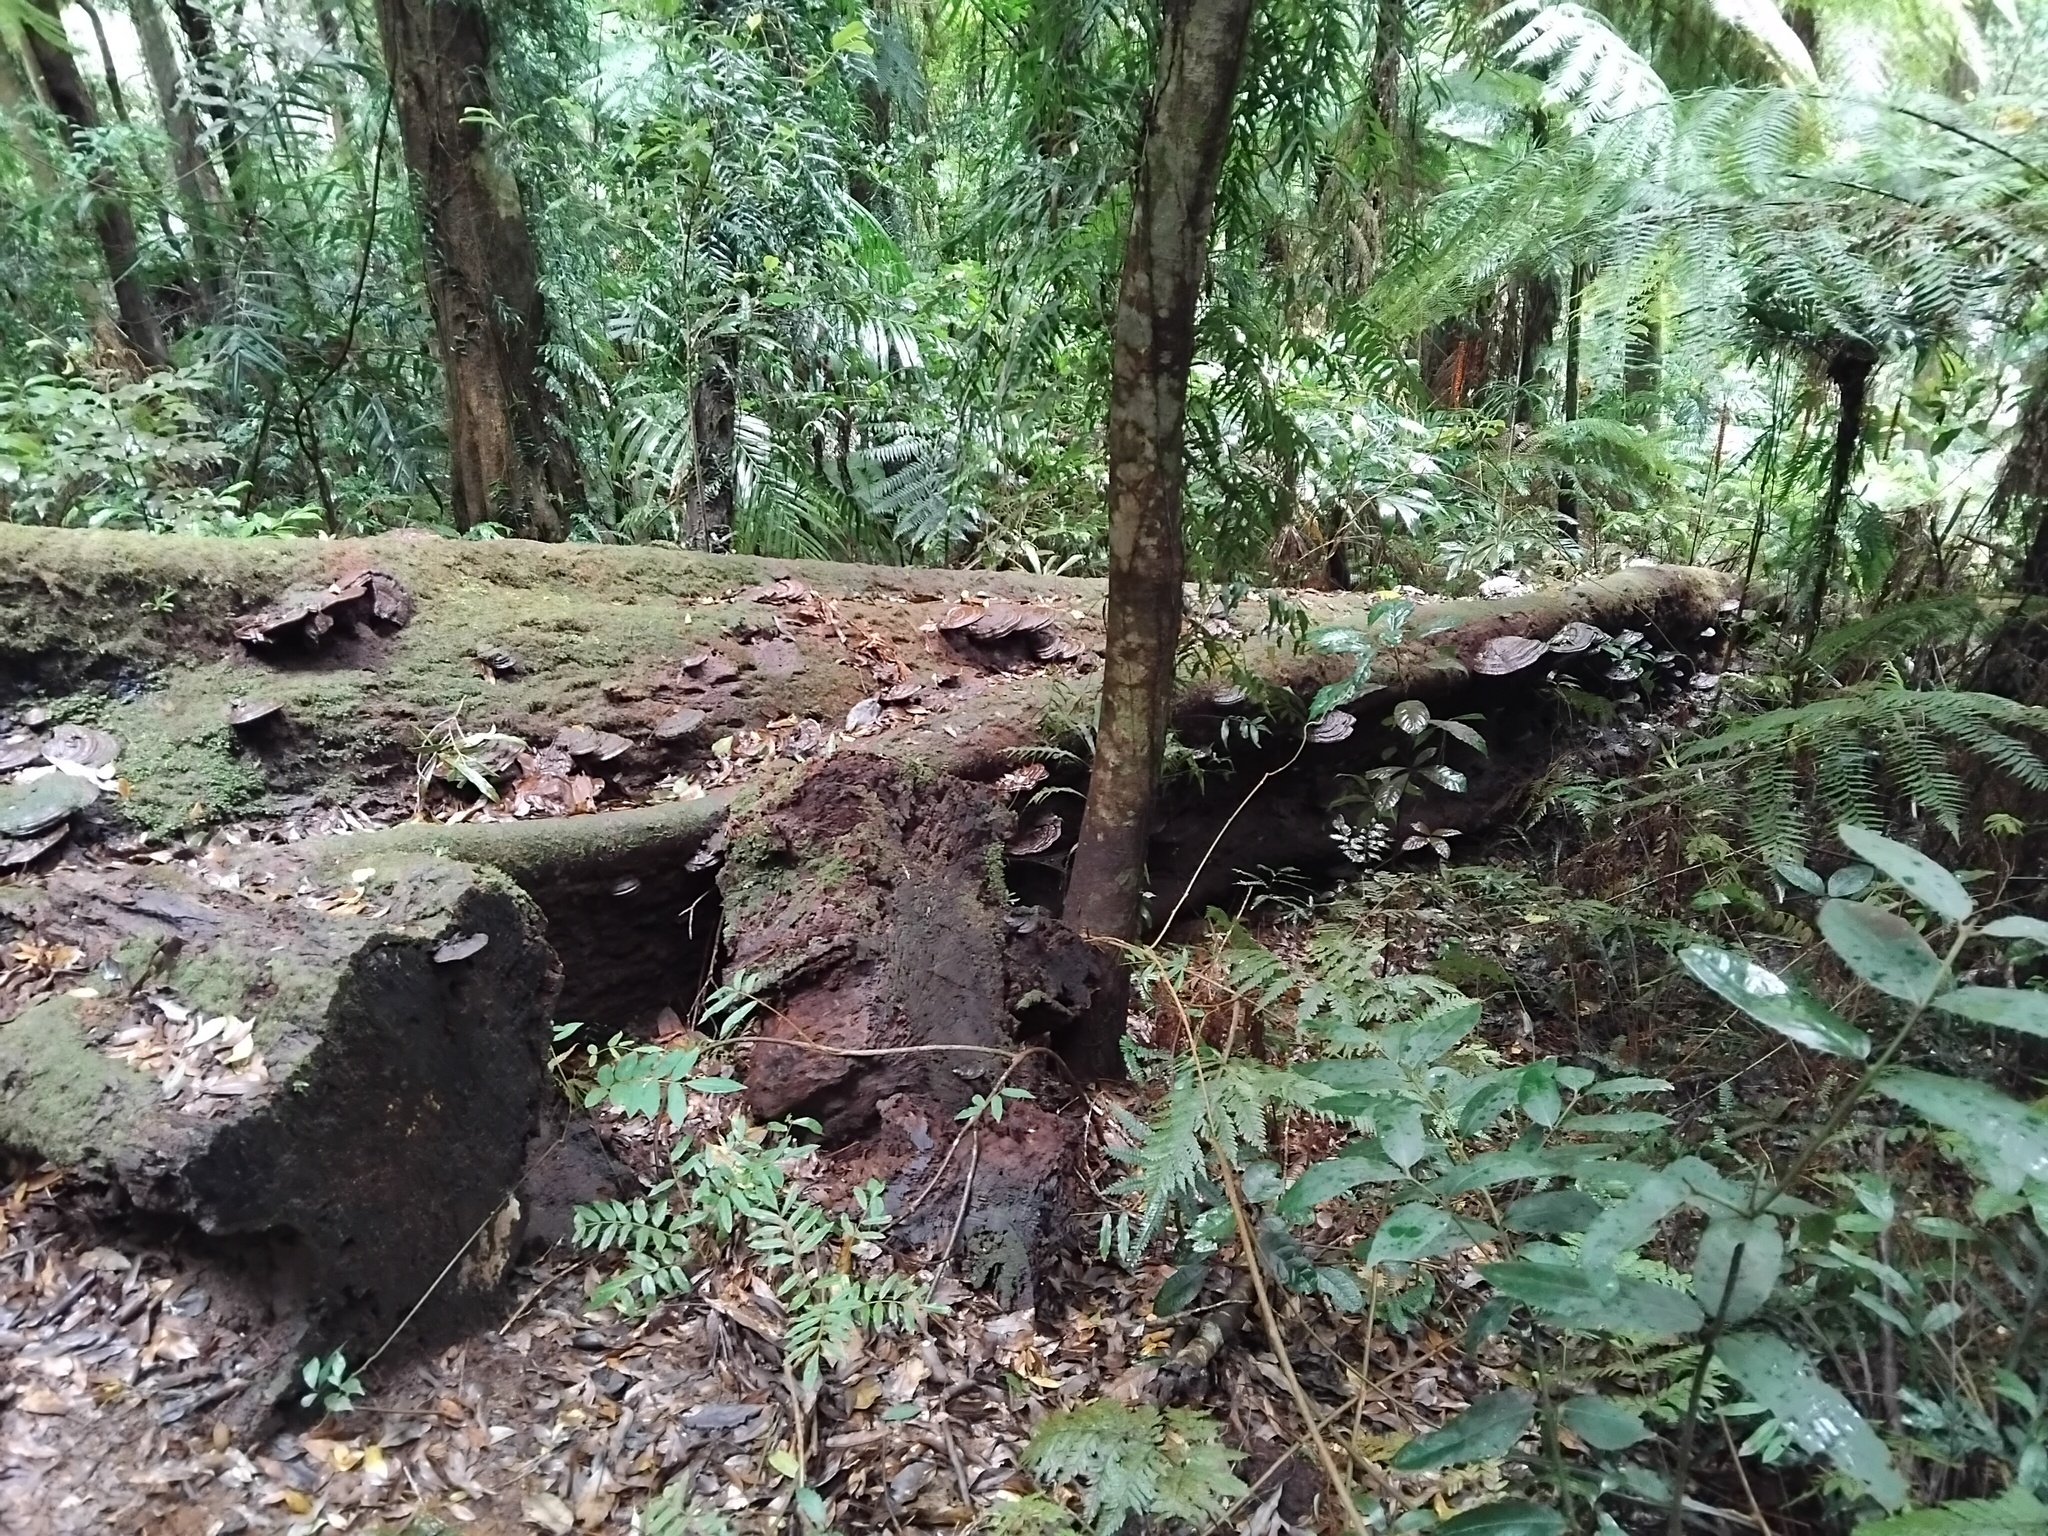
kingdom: Fungi
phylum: Basidiomycota
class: Agaricomycetes
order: Polyporales
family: Polyporaceae
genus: Ganoderma
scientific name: Ganoderma australe
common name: Southern bracket
